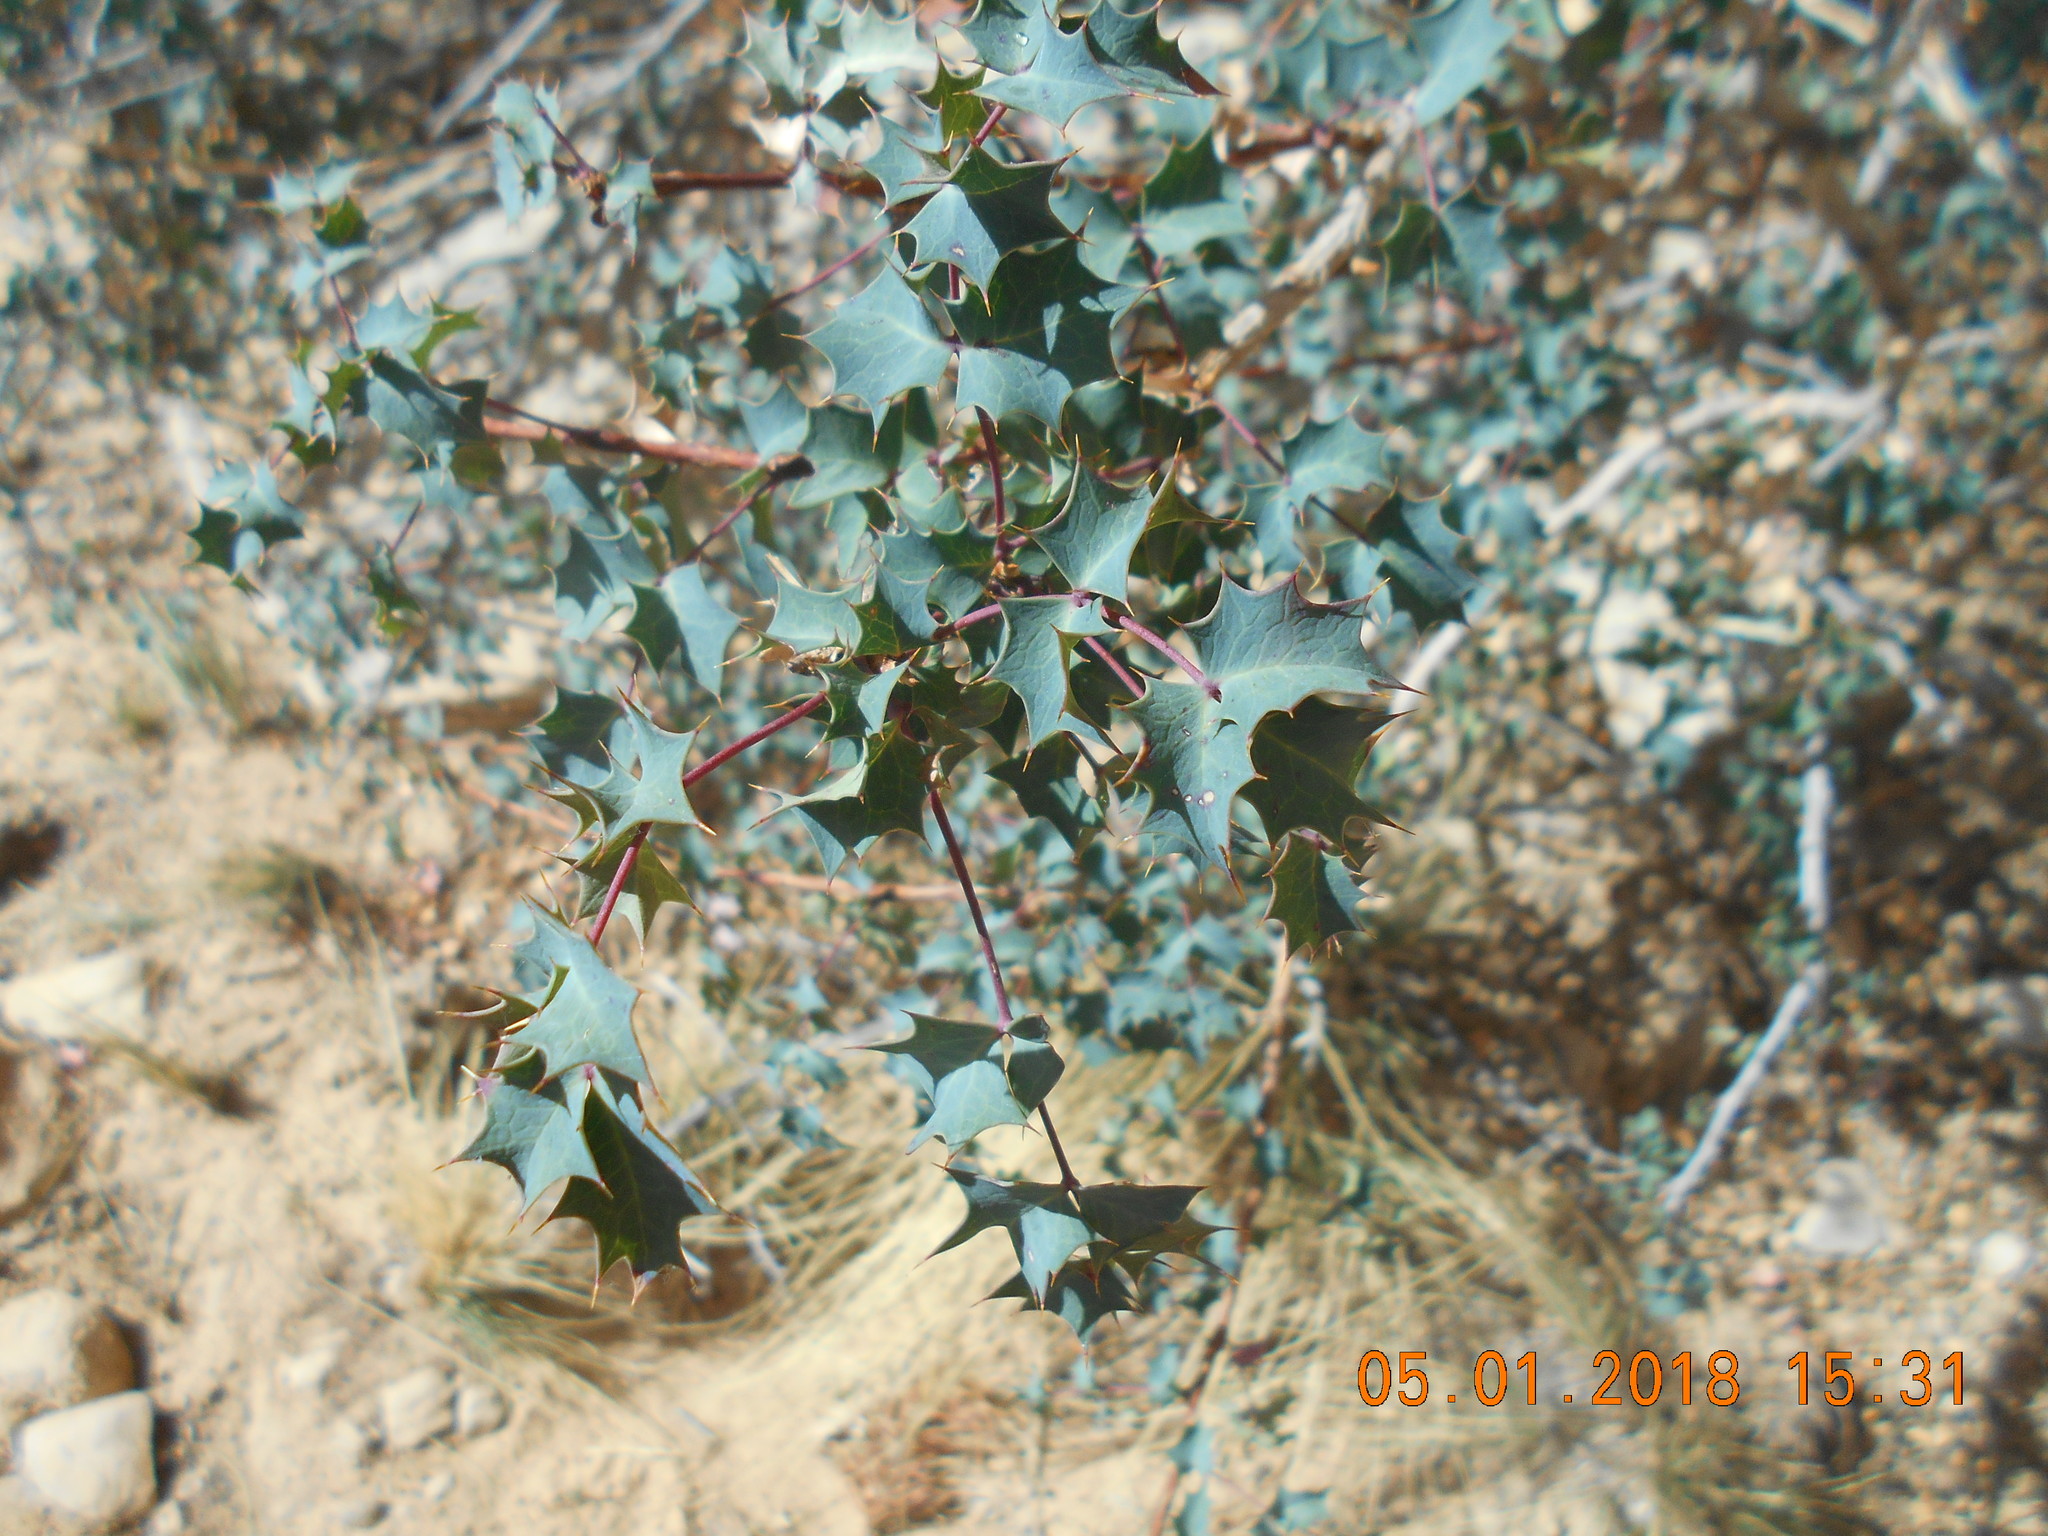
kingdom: Plantae
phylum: Tracheophyta
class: Magnoliopsida
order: Ranunculales
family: Berberidaceae
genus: Alloberberis
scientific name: Alloberberis fremontii
